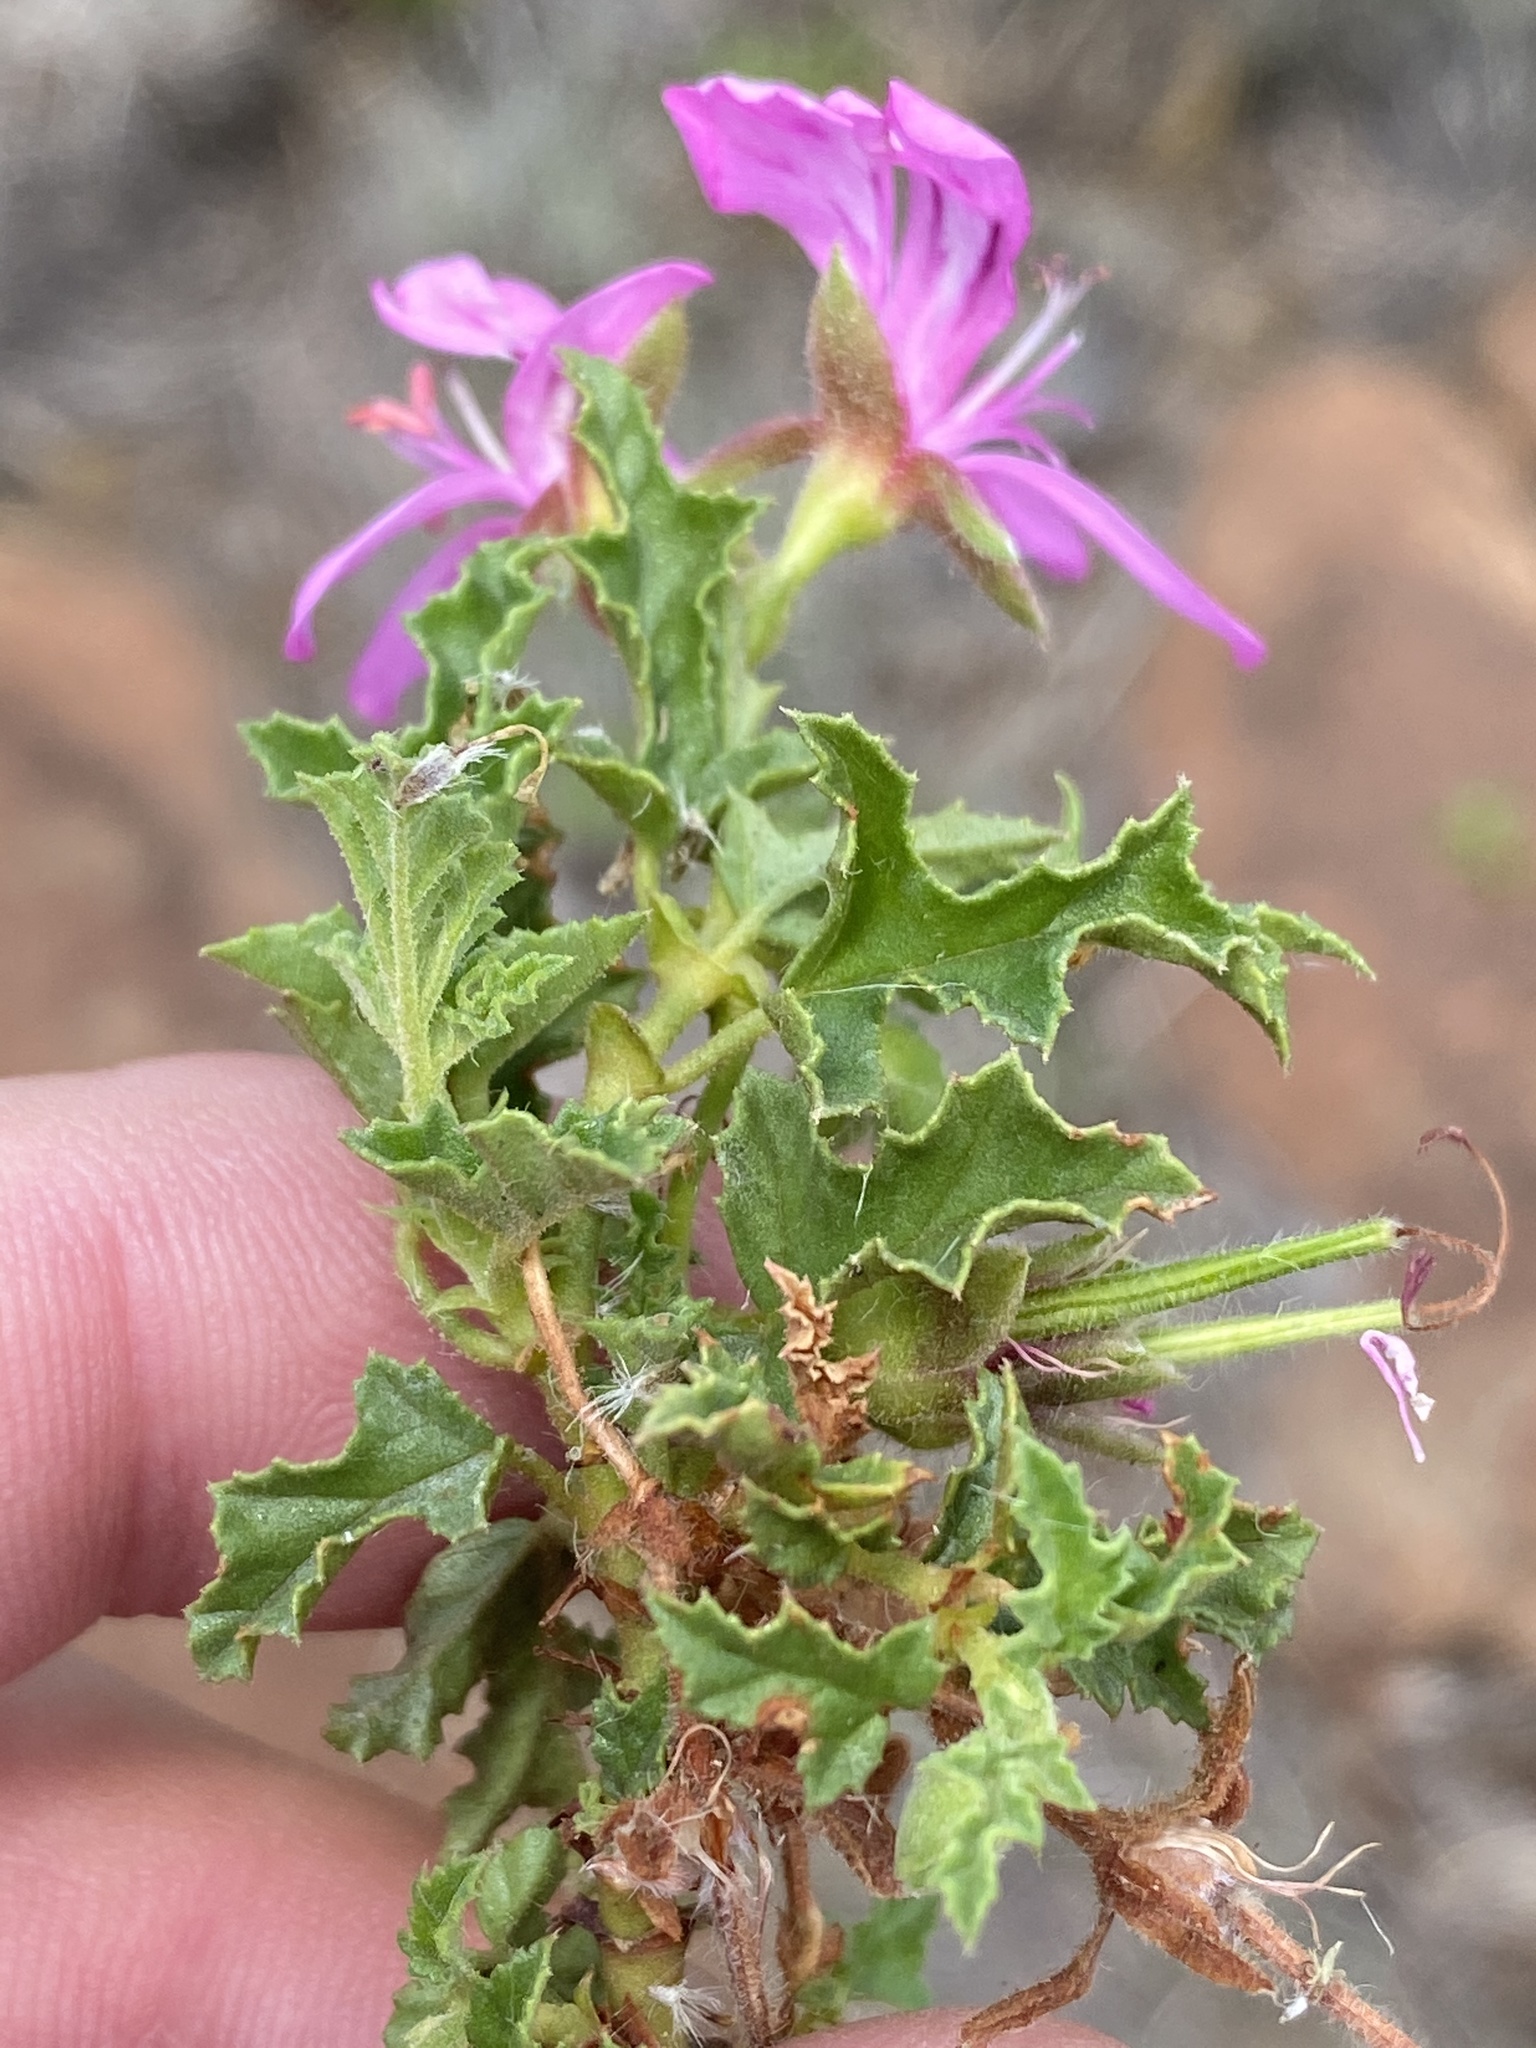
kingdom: Plantae
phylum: Tracheophyta
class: Magnoliopsida
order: Geraniales
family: Geraniaceae
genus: Pelargonium
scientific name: Pelargonium glutinosum
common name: Pheasant-foot geranium
